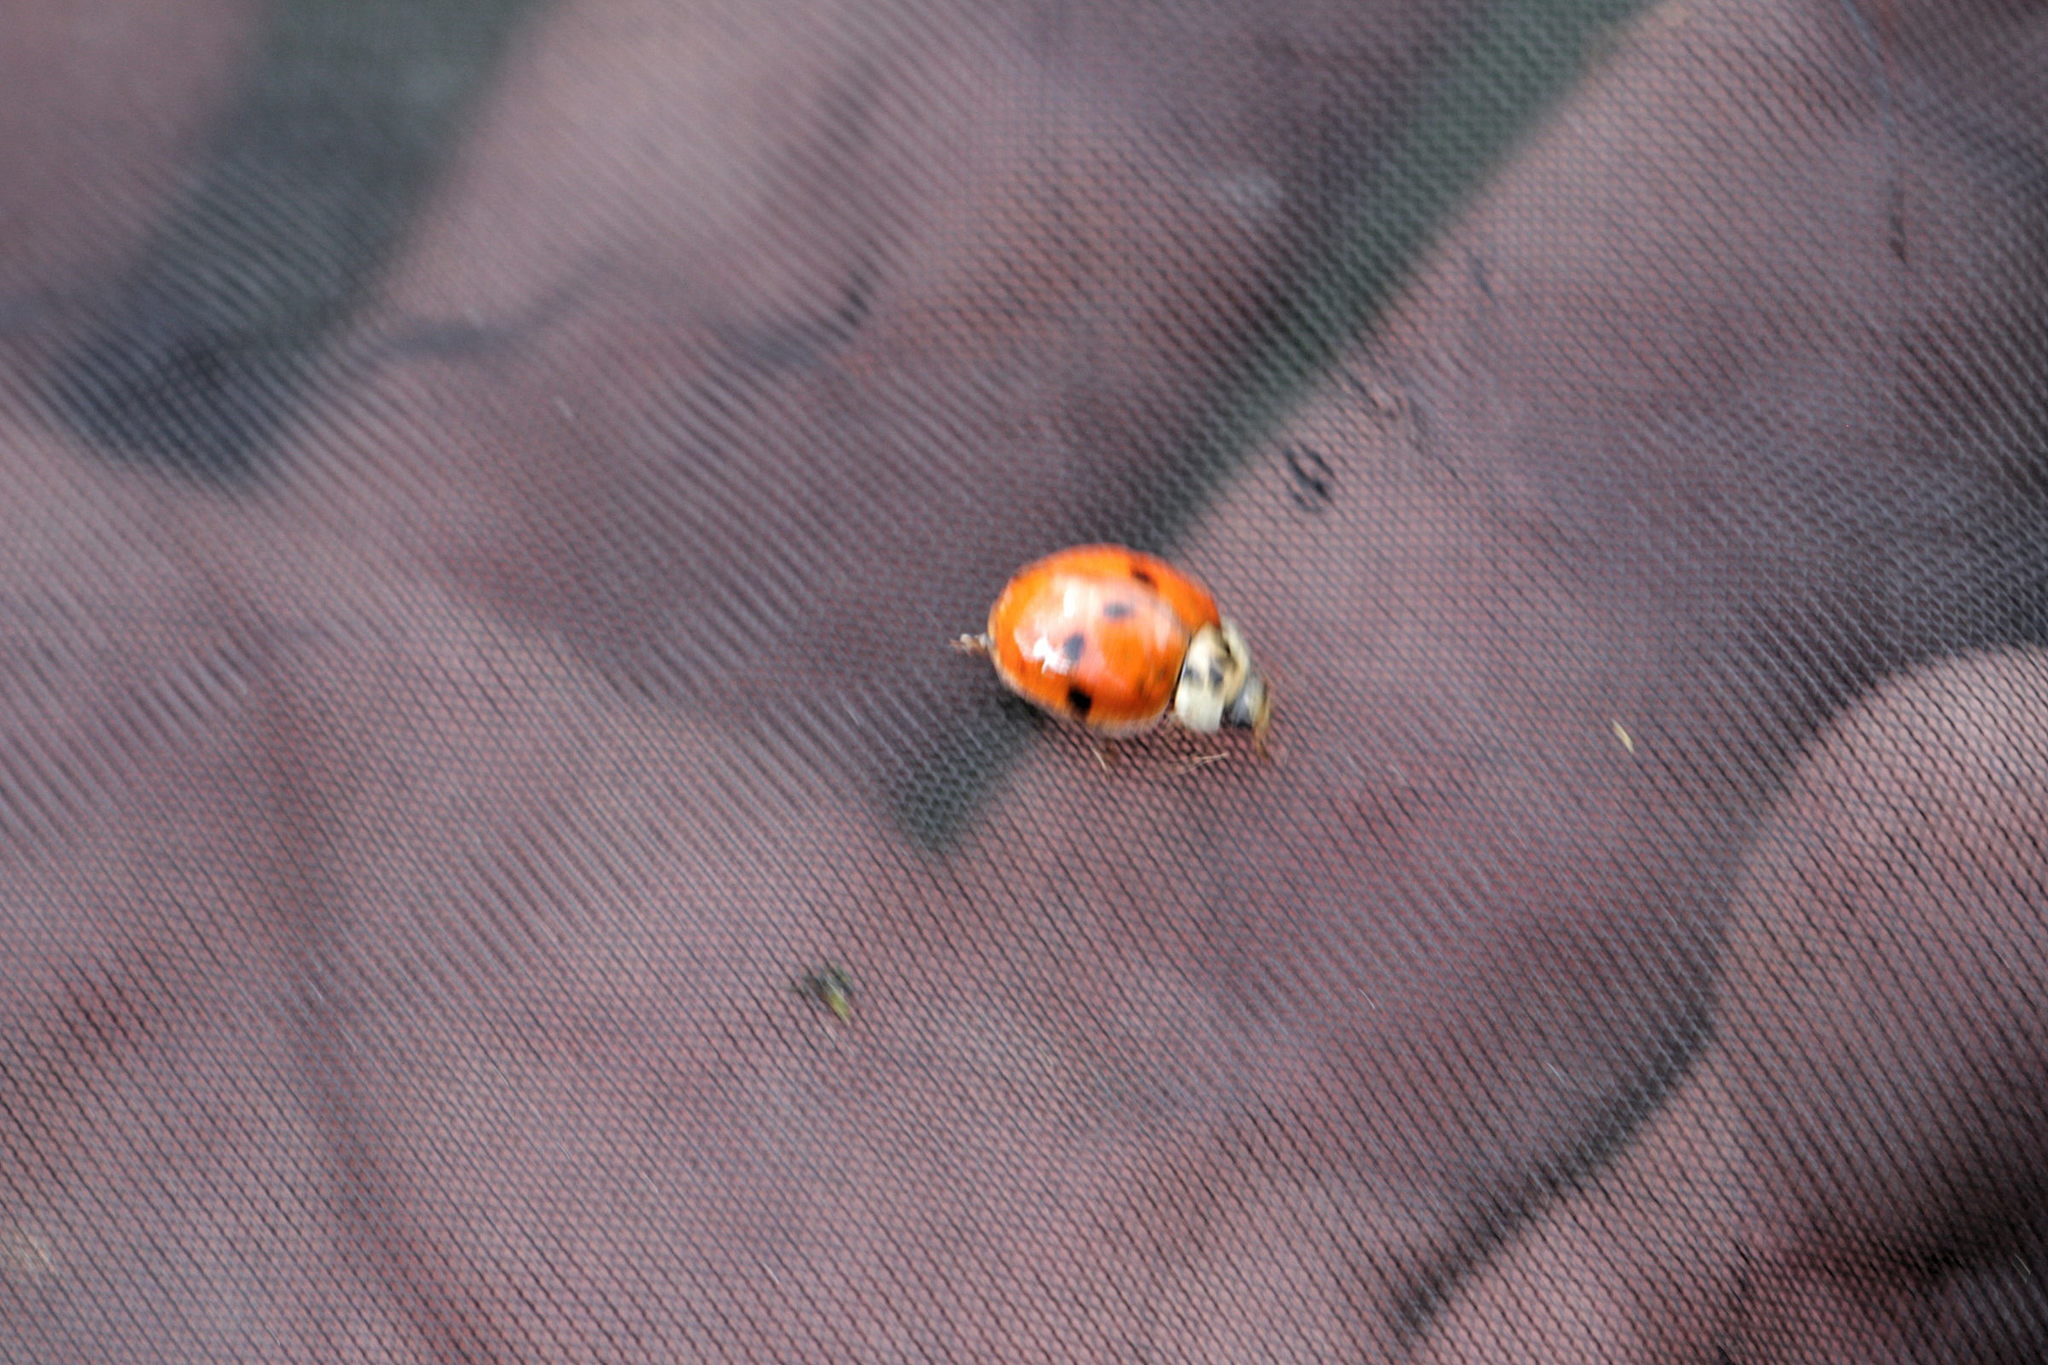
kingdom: Animalia
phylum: Arthropoda
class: Insecta
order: Coleoptera
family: Coccinellidae
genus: Harmonia
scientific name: Harmonia axyridis
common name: Harlequin ladybird
